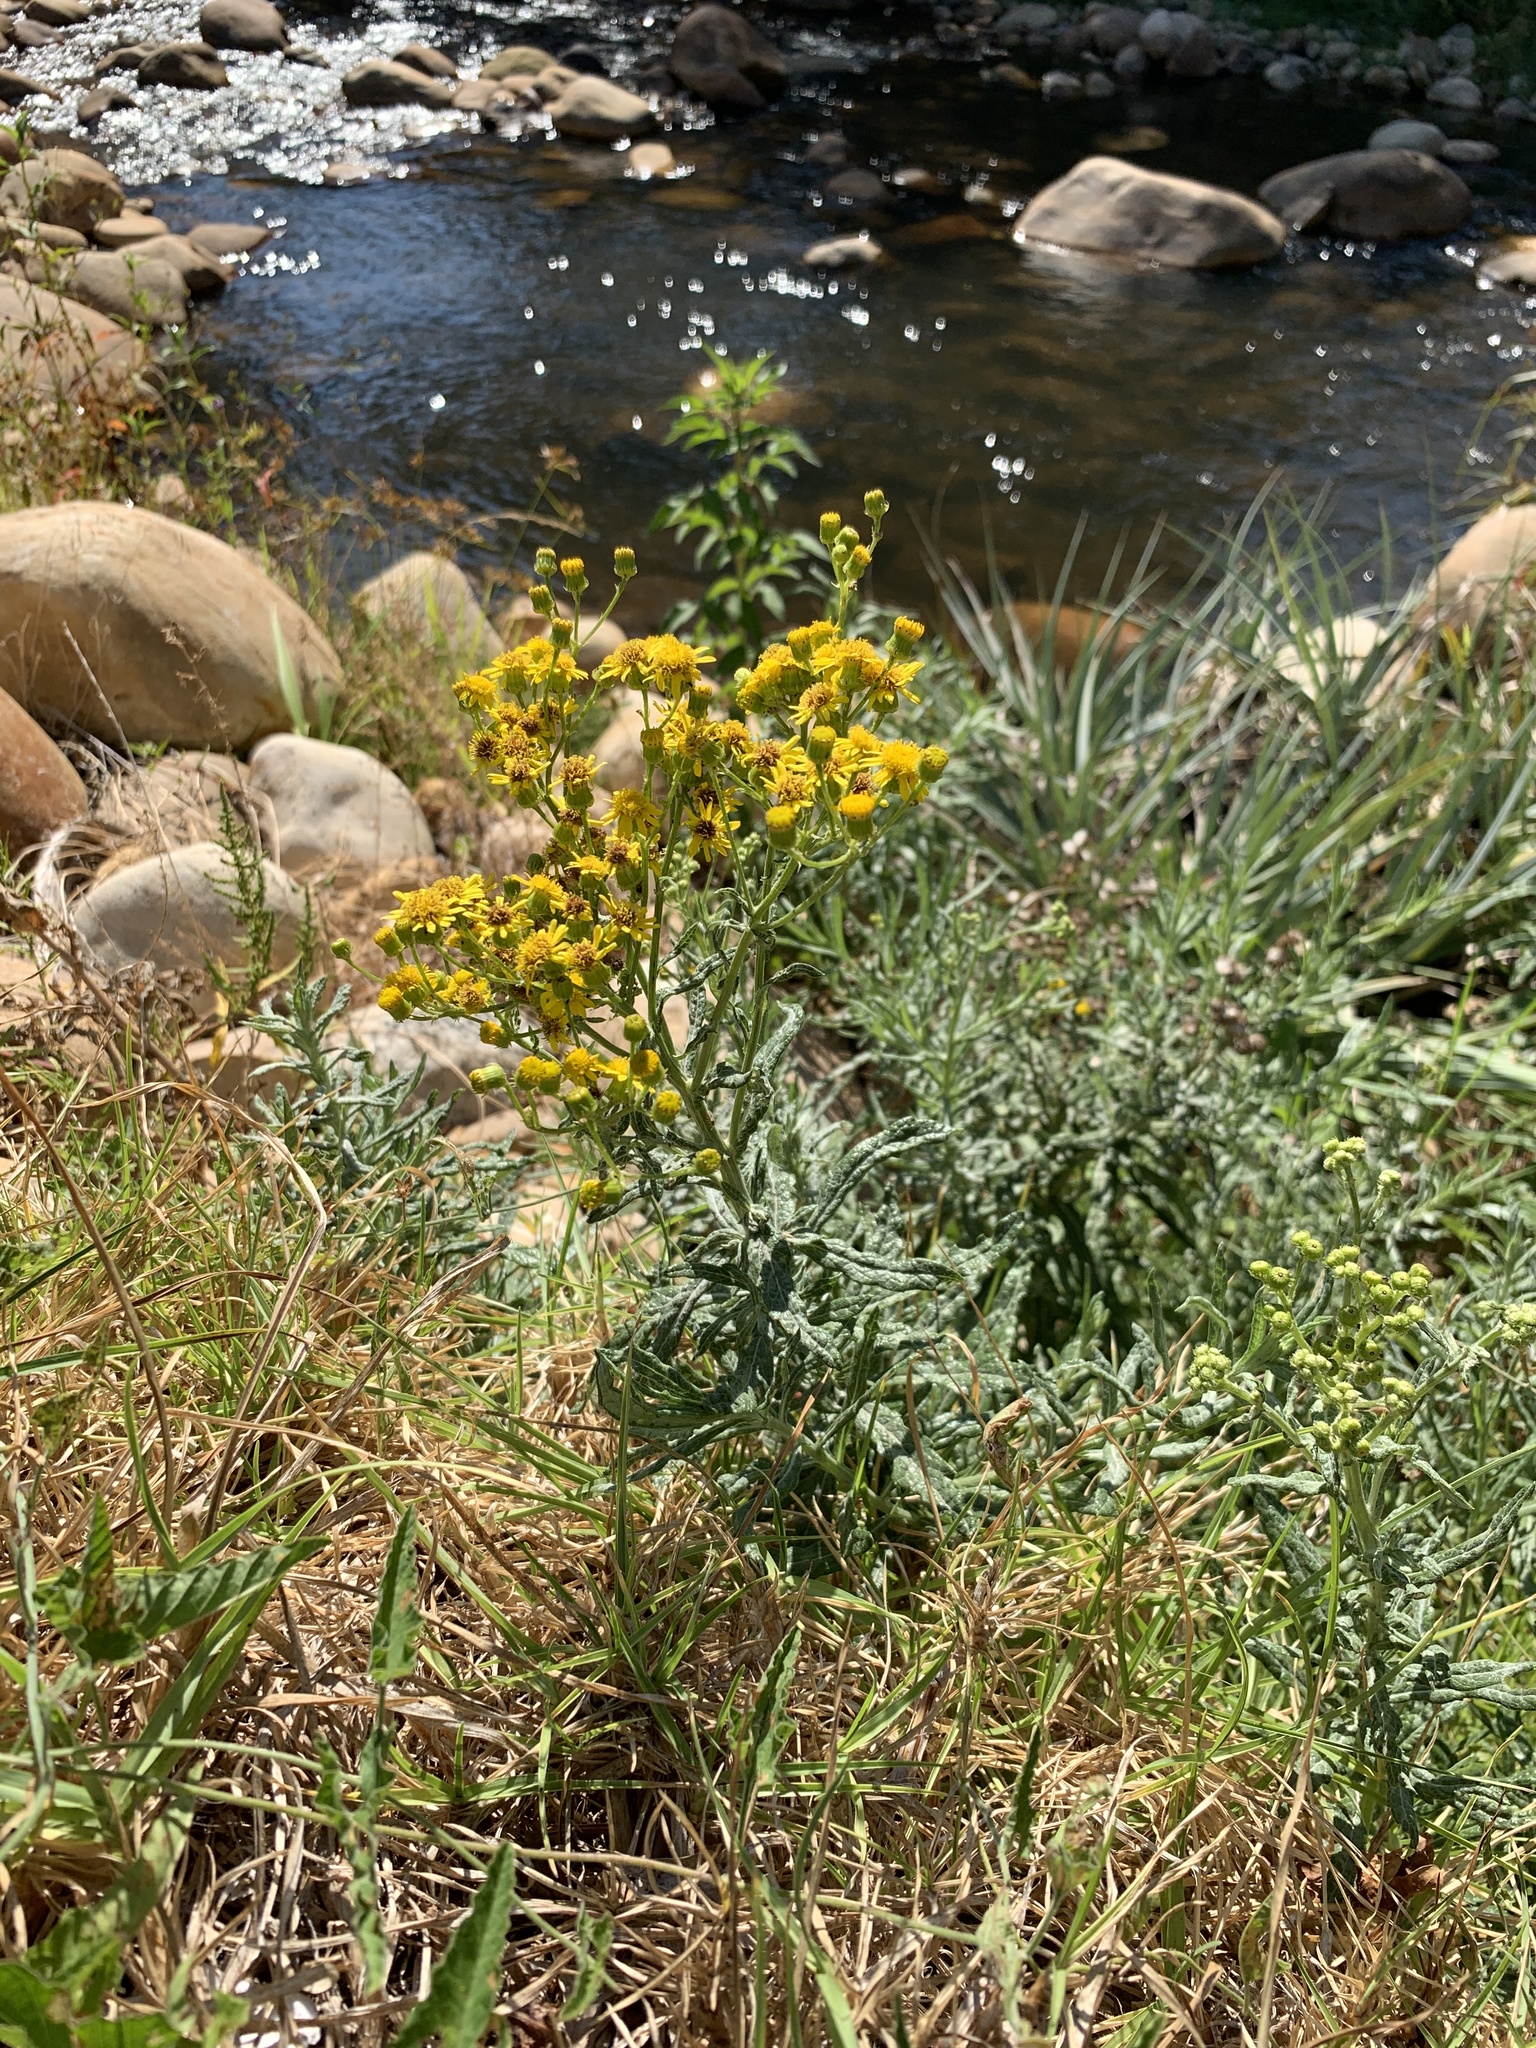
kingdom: Plantae
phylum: Tracheophyta
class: Magnoliopsida
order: Asterales
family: Asteraceae
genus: Senecio
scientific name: Senecio pterophorus
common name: Shoddy ragwort
